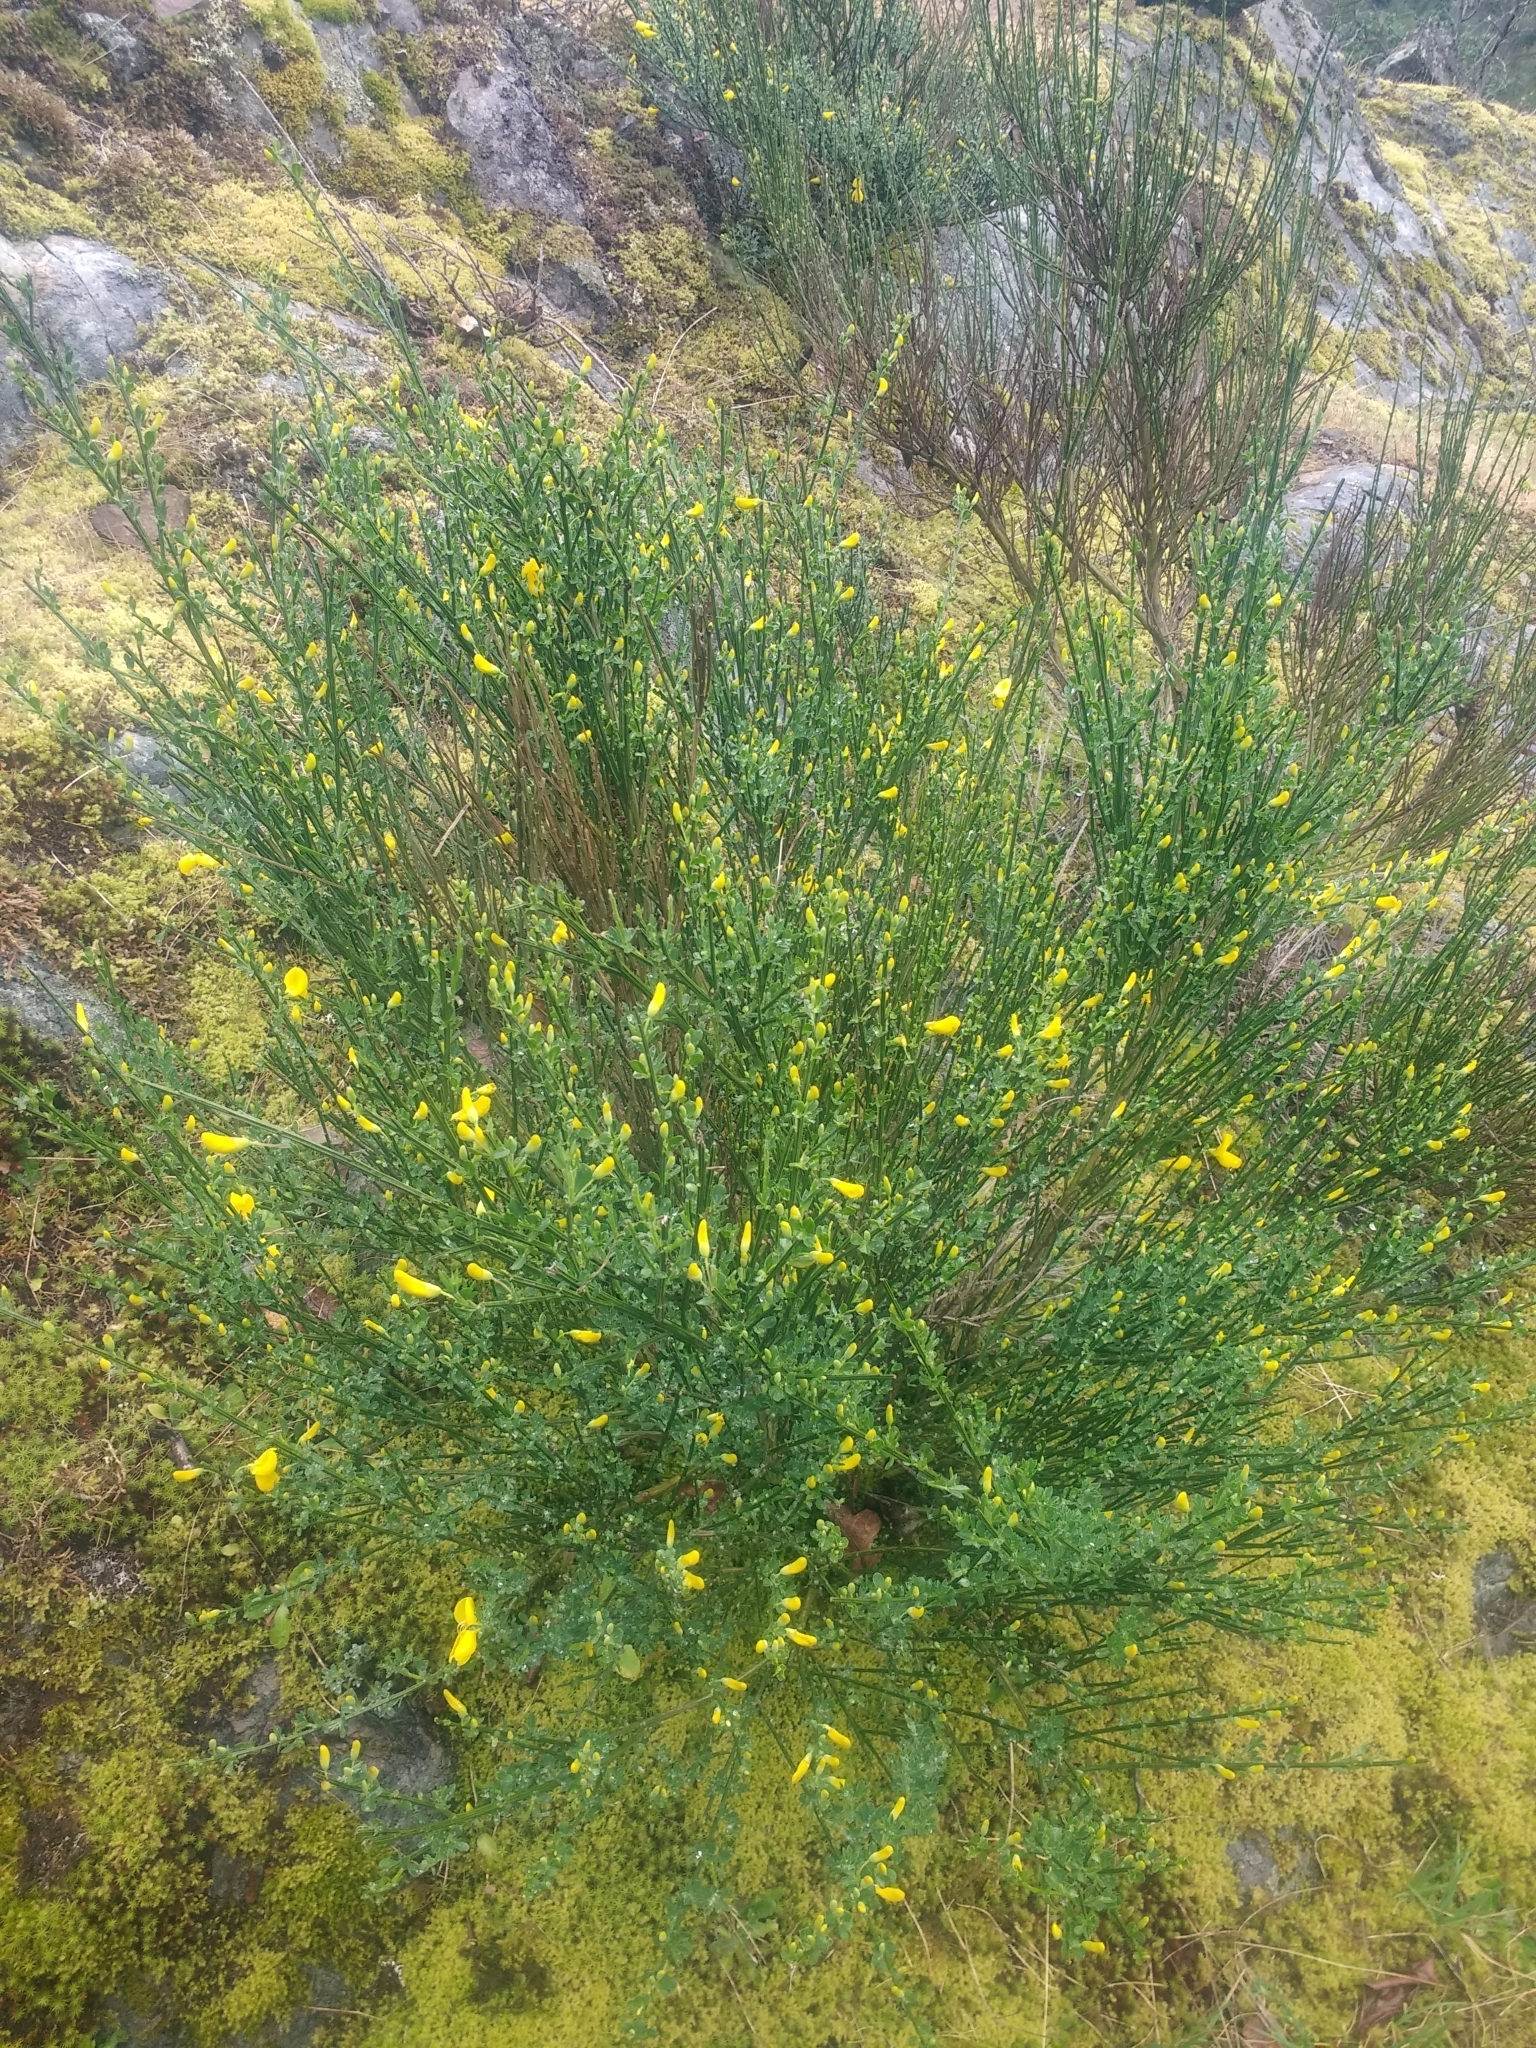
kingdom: Plantae
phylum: Tracheophyta
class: Magnoliopsida
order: Fabales
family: Fabaceae
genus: Cytisus
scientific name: Cytisus scoparius
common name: Scotch broom
